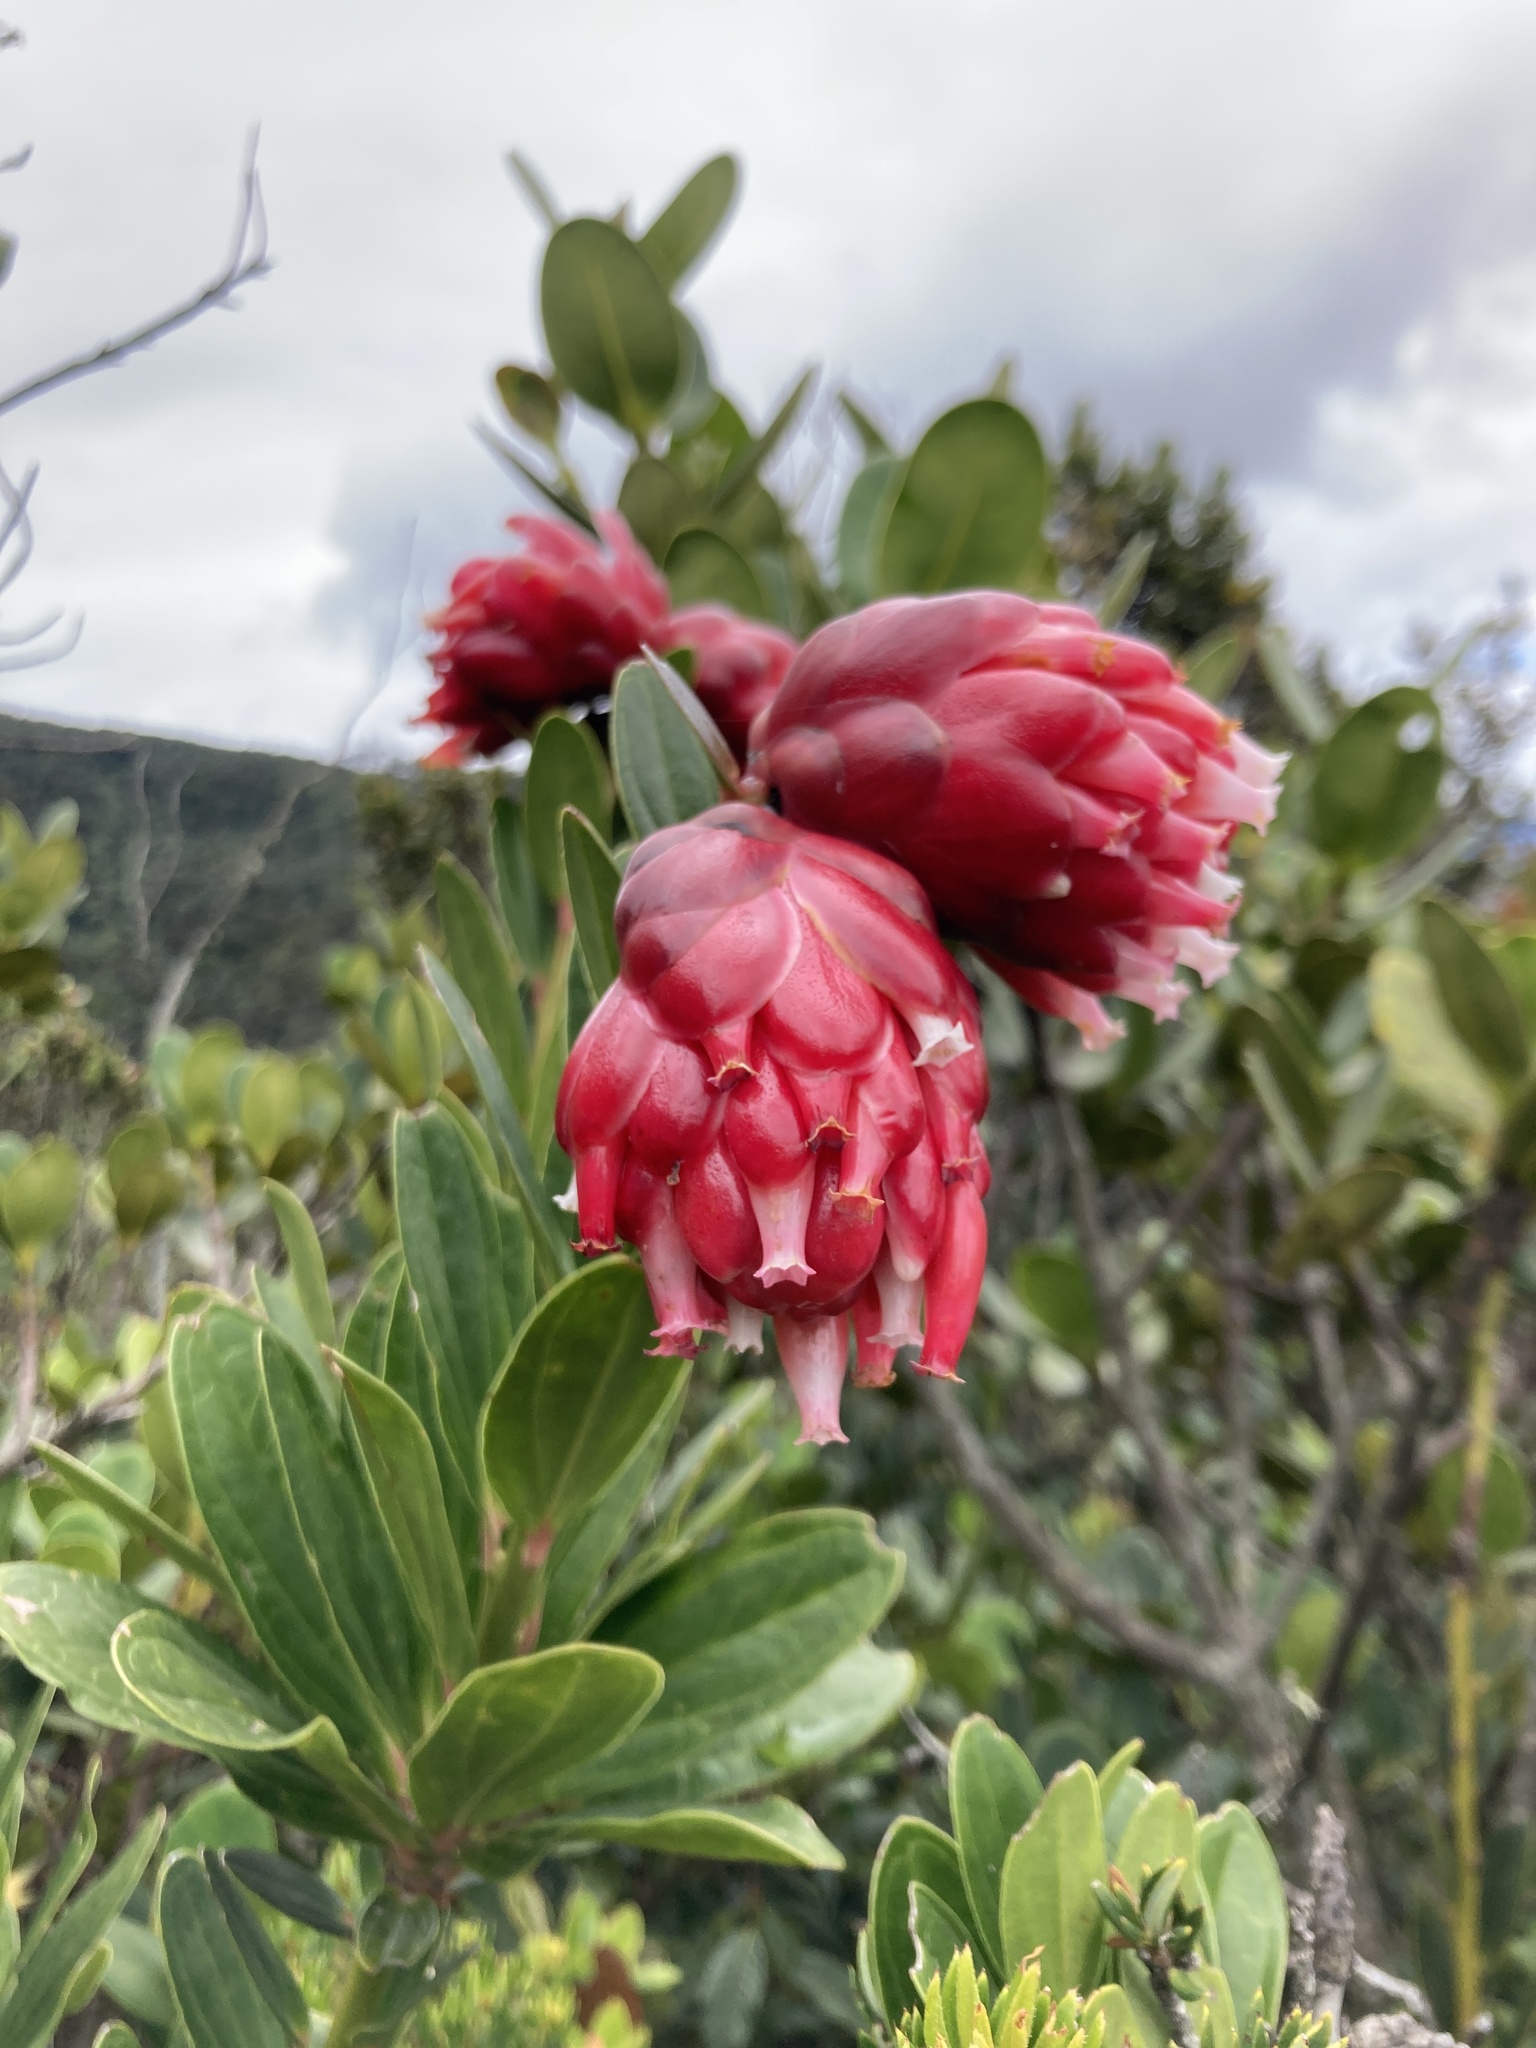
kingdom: Plantae
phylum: Tracheophyta
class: Magnoliopsida
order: Ericales
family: Ericaceae
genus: Cavendishia
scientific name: Cavendishia nitida
